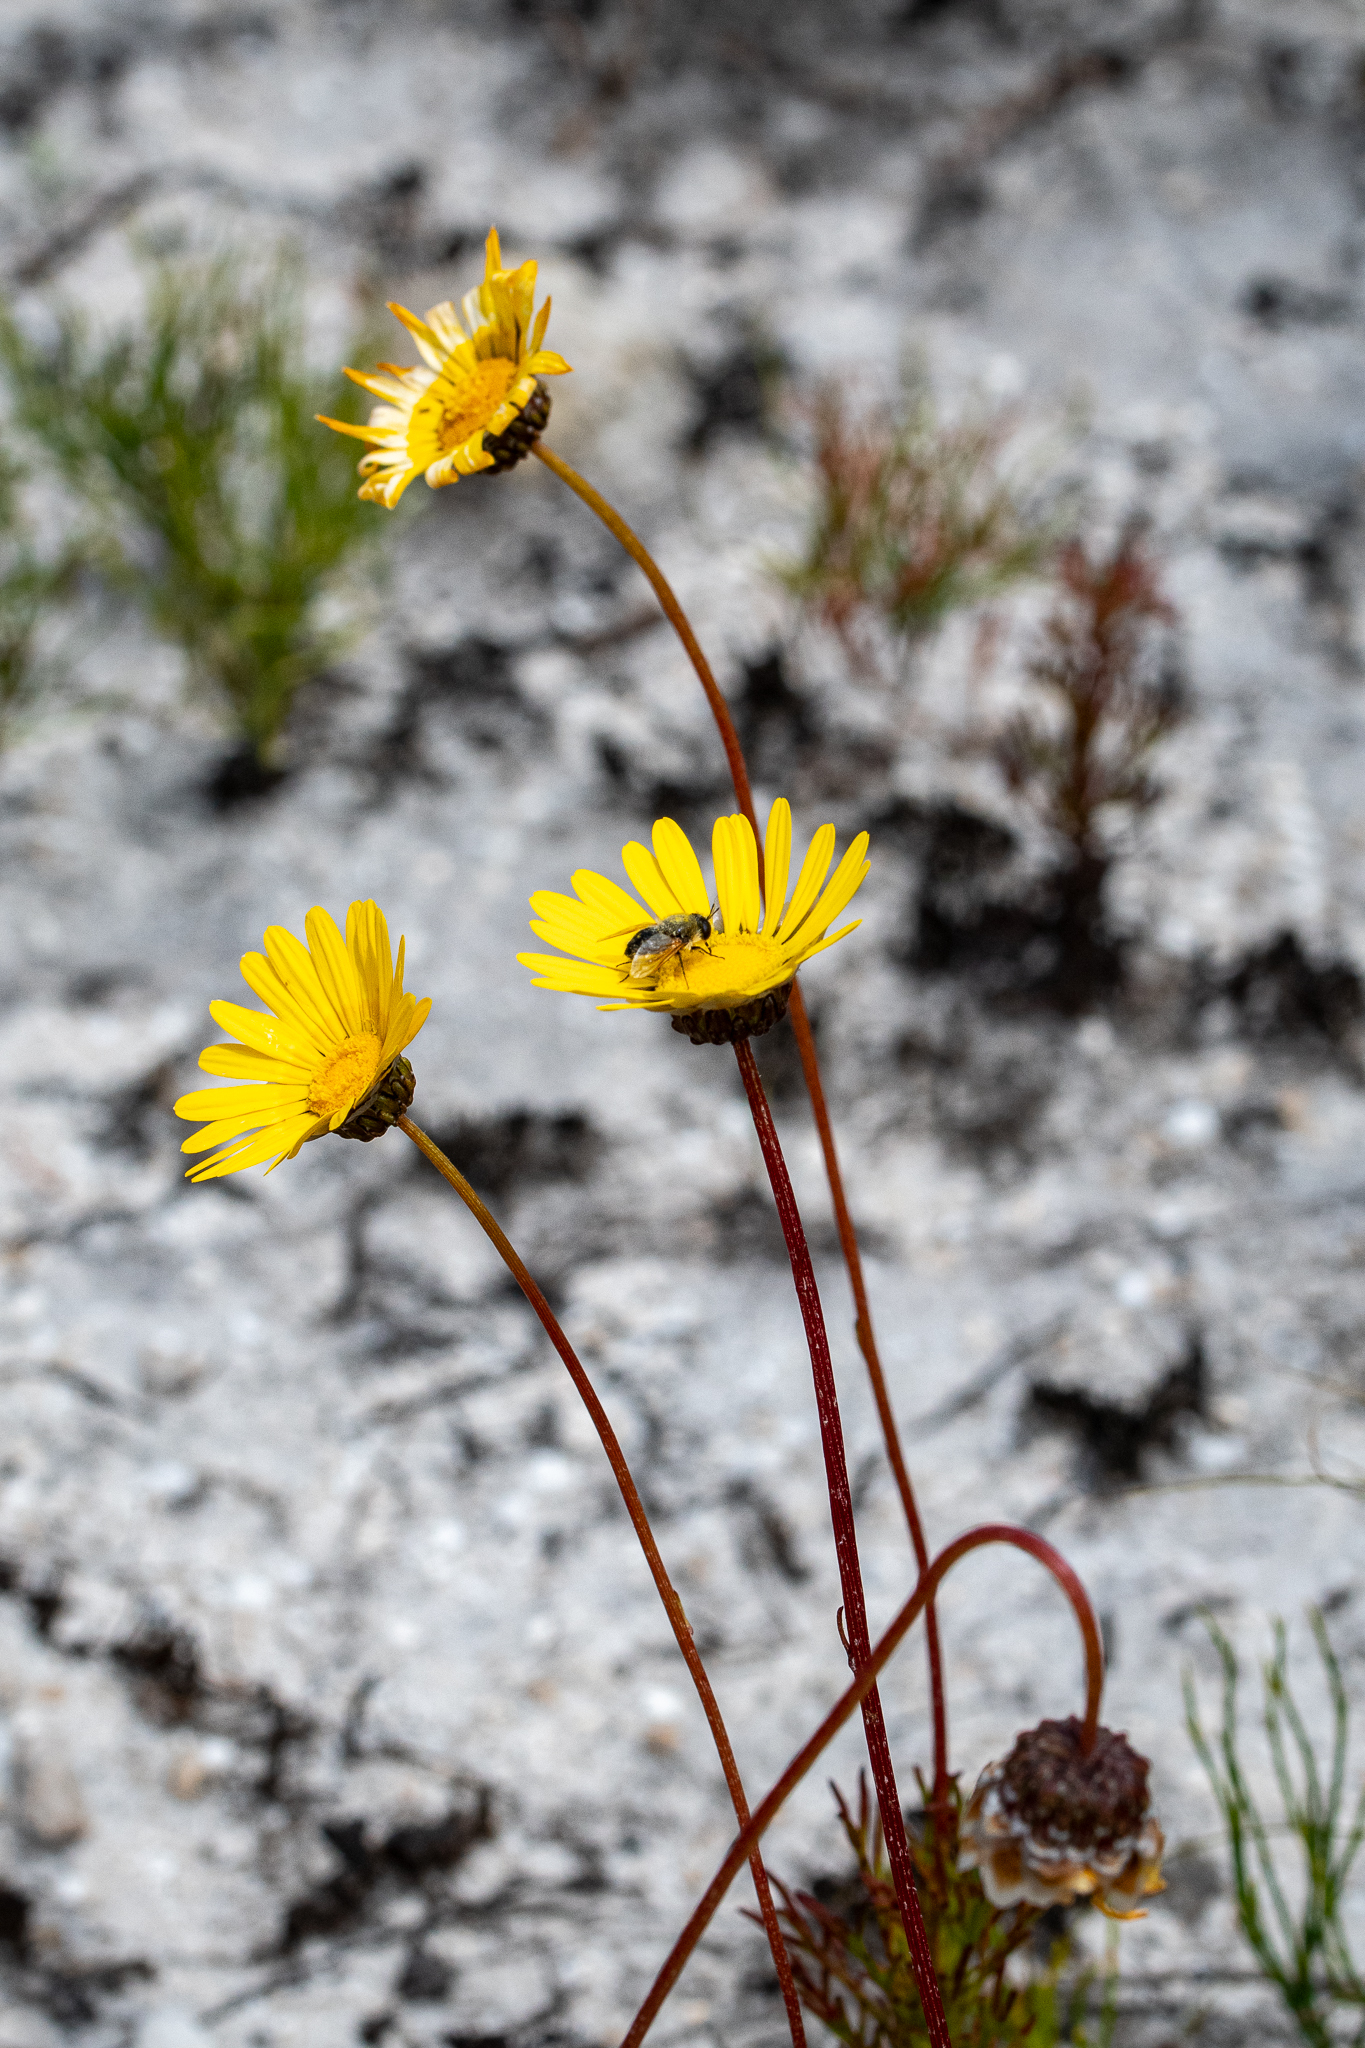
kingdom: Plantae
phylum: Tracheophyta
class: Magnoliopsida
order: Asterales
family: Asteraceae
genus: Ursinia
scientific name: Ursinia paleacea
